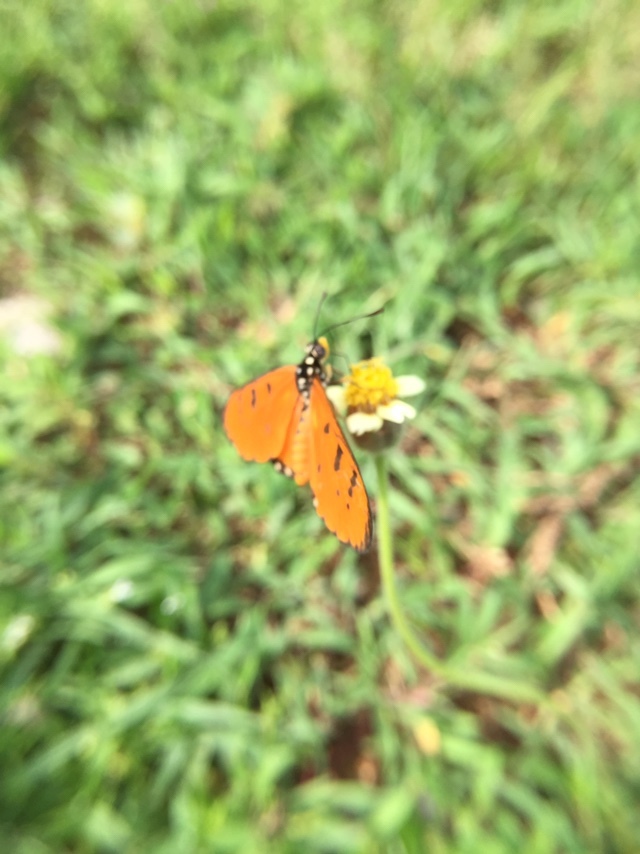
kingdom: Animalia
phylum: Arthropoda
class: Insecta
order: Lepidoptera
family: Nymphalidae
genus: Acraea
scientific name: Acraea terpsicore
